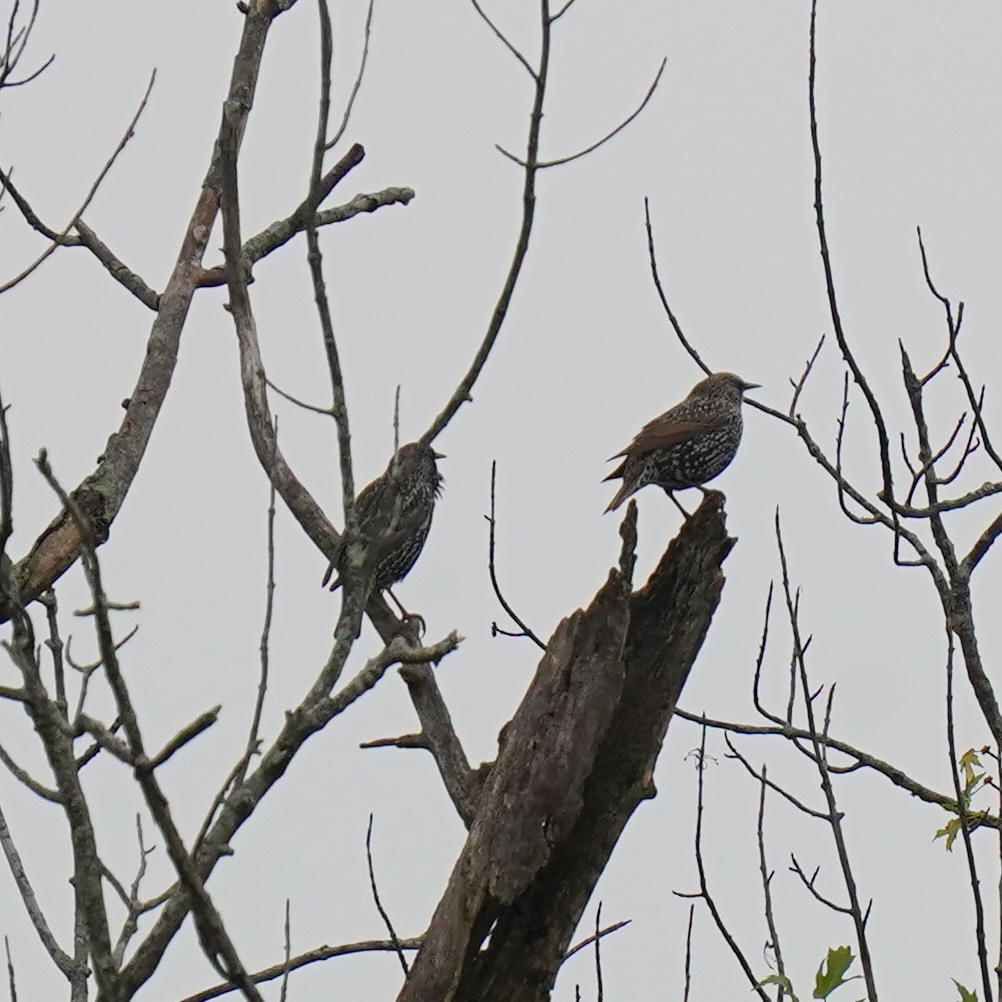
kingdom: Animalia
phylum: Chordata
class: Aves
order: Passeriformes
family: Sturnidae
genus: Sturnus
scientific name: Sturnus vulgaris
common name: Common starling
